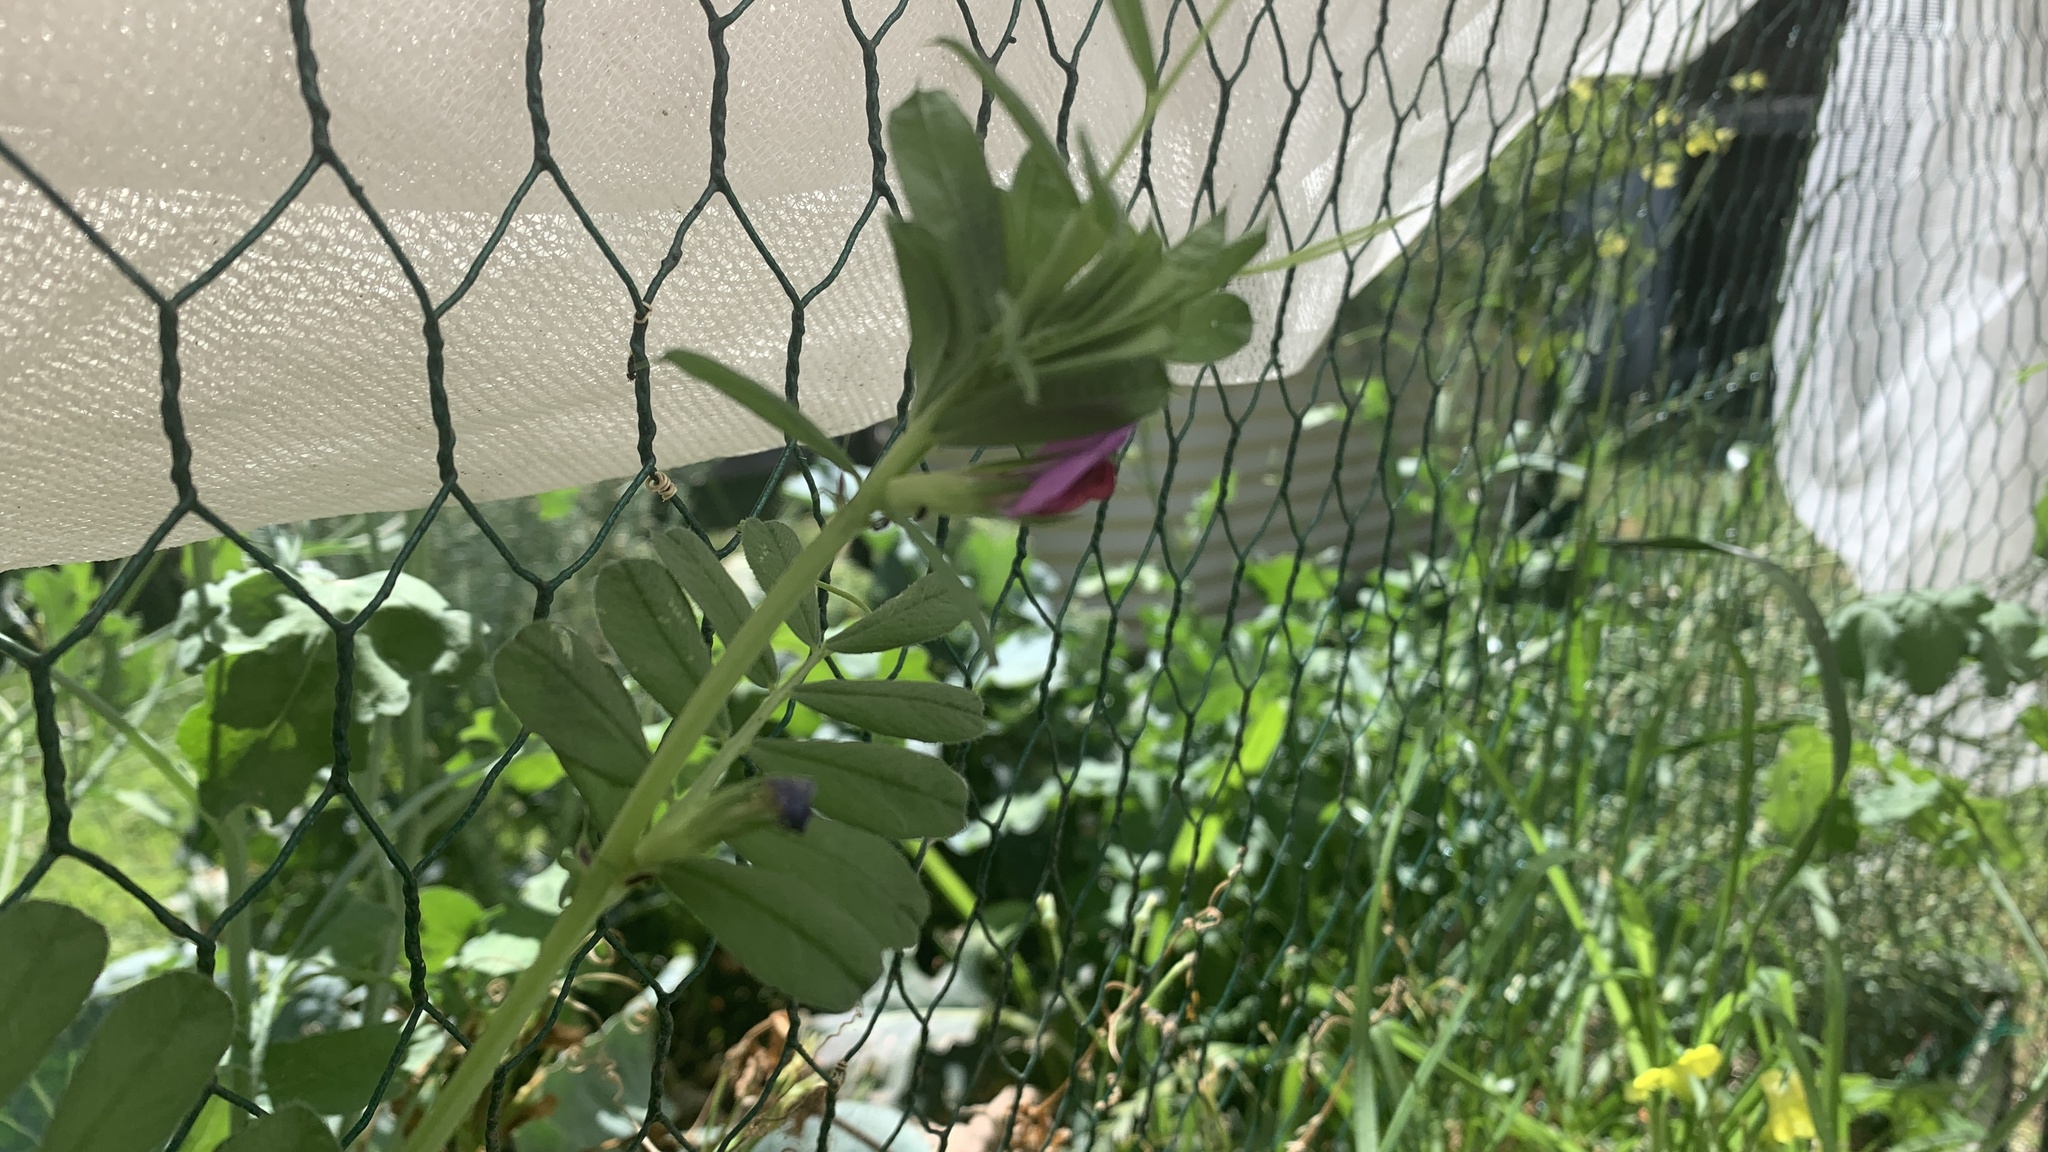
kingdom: Plantae
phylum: Tracheophyta
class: Magnoliopsida
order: Fabales
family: Fabaceae
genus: Vicia
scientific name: Vicia sativa
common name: Garden vetch
